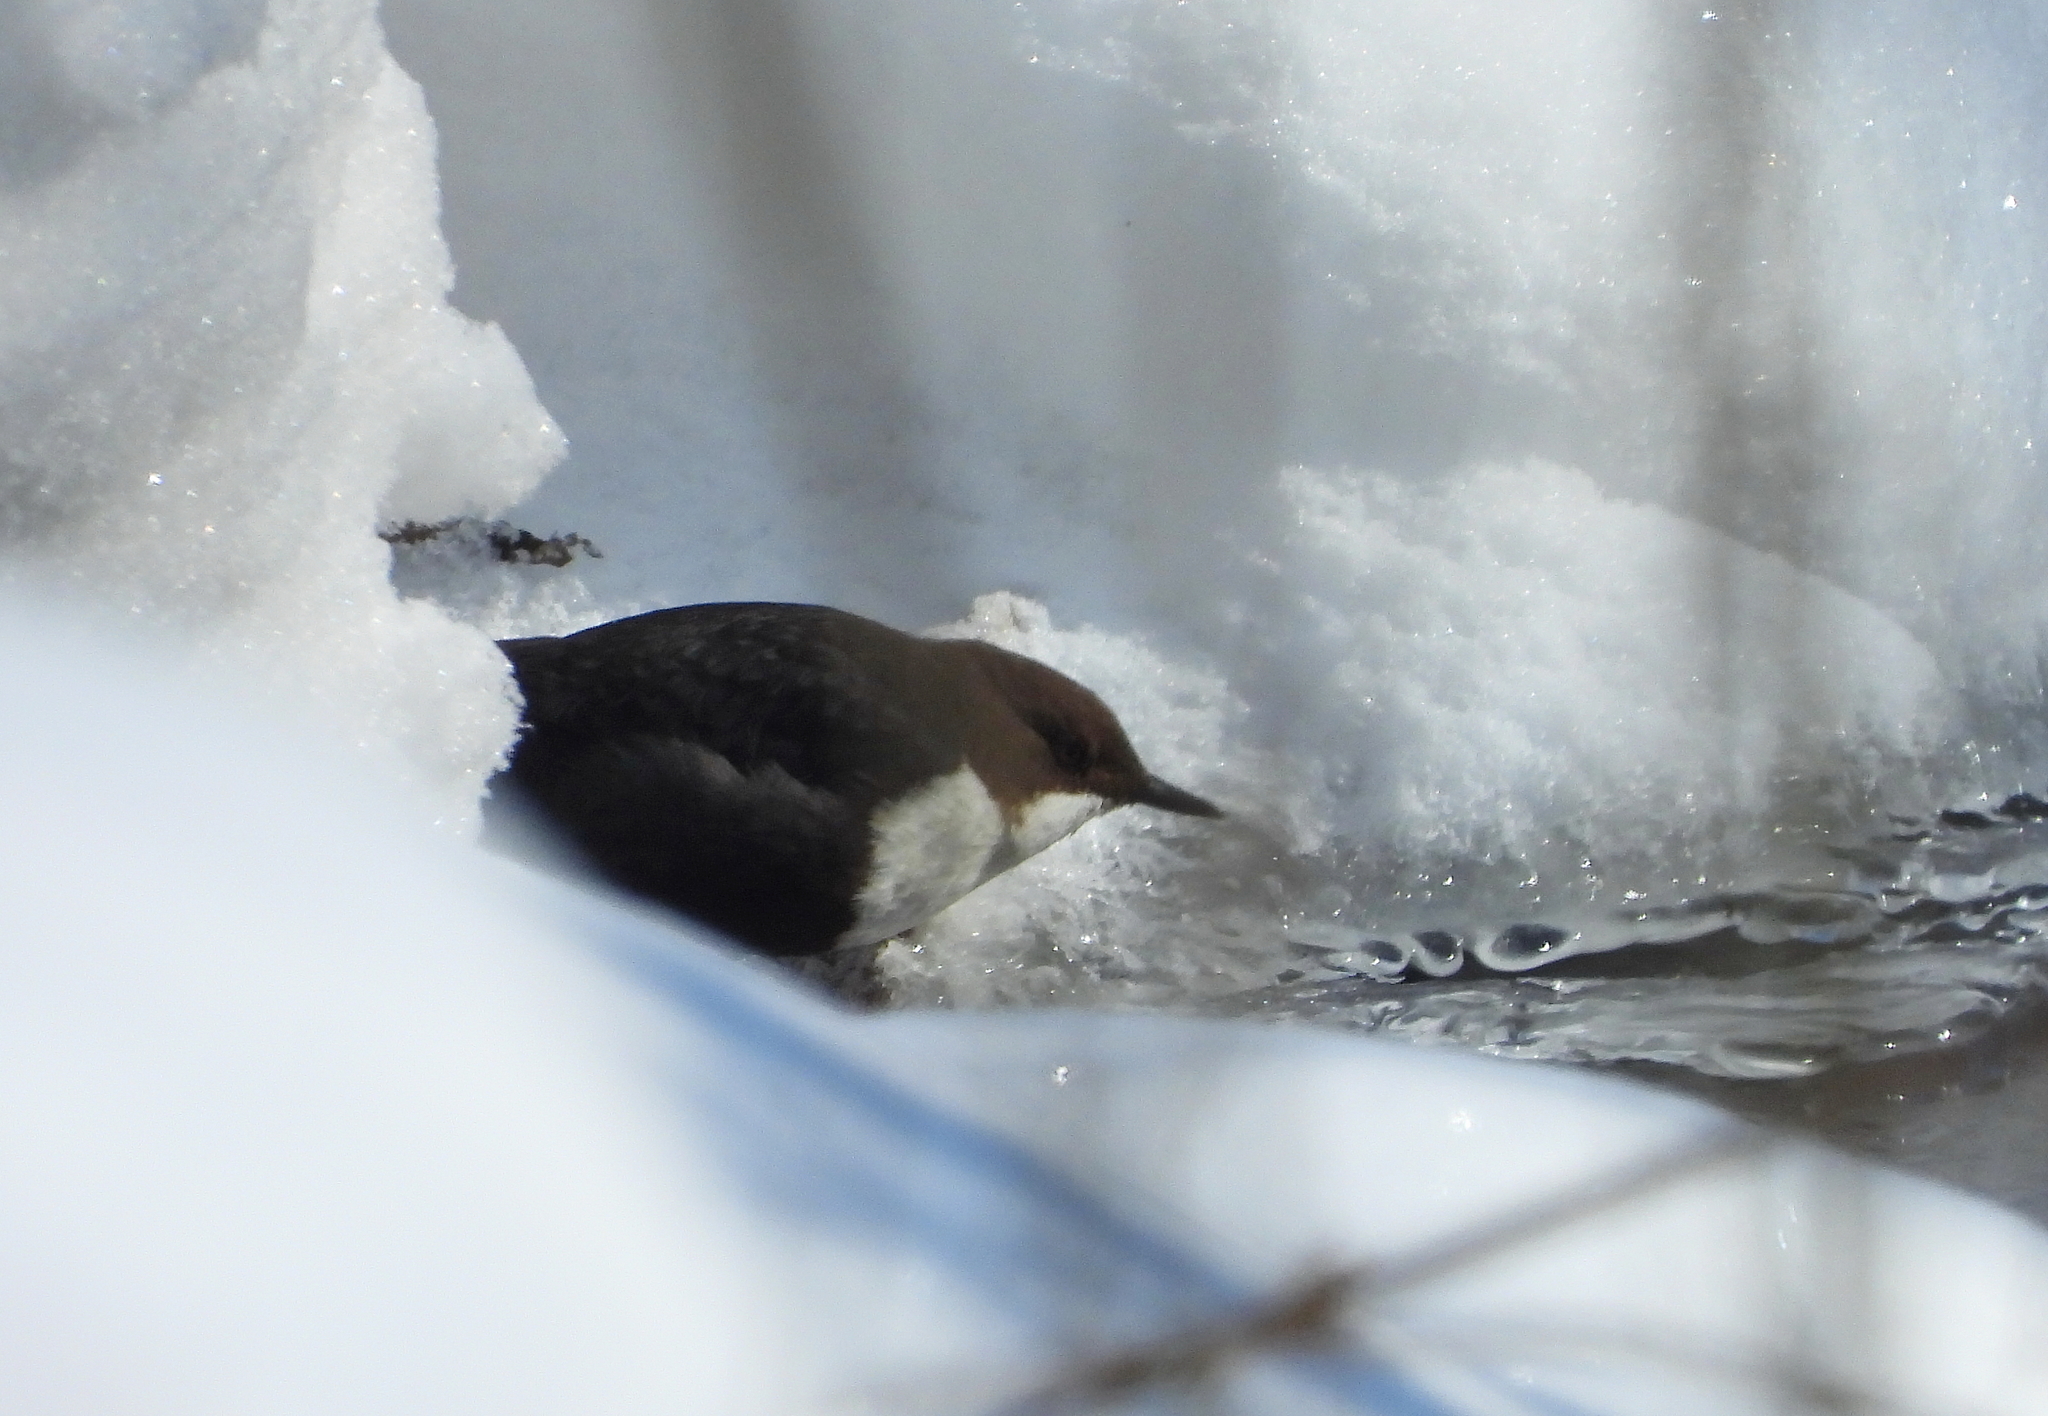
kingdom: Animalia
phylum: Chordata
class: Aves
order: Passeriformes
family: Cinclidae
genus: Cinclus
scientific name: Cinclus cinclus
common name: White-throated dipper
